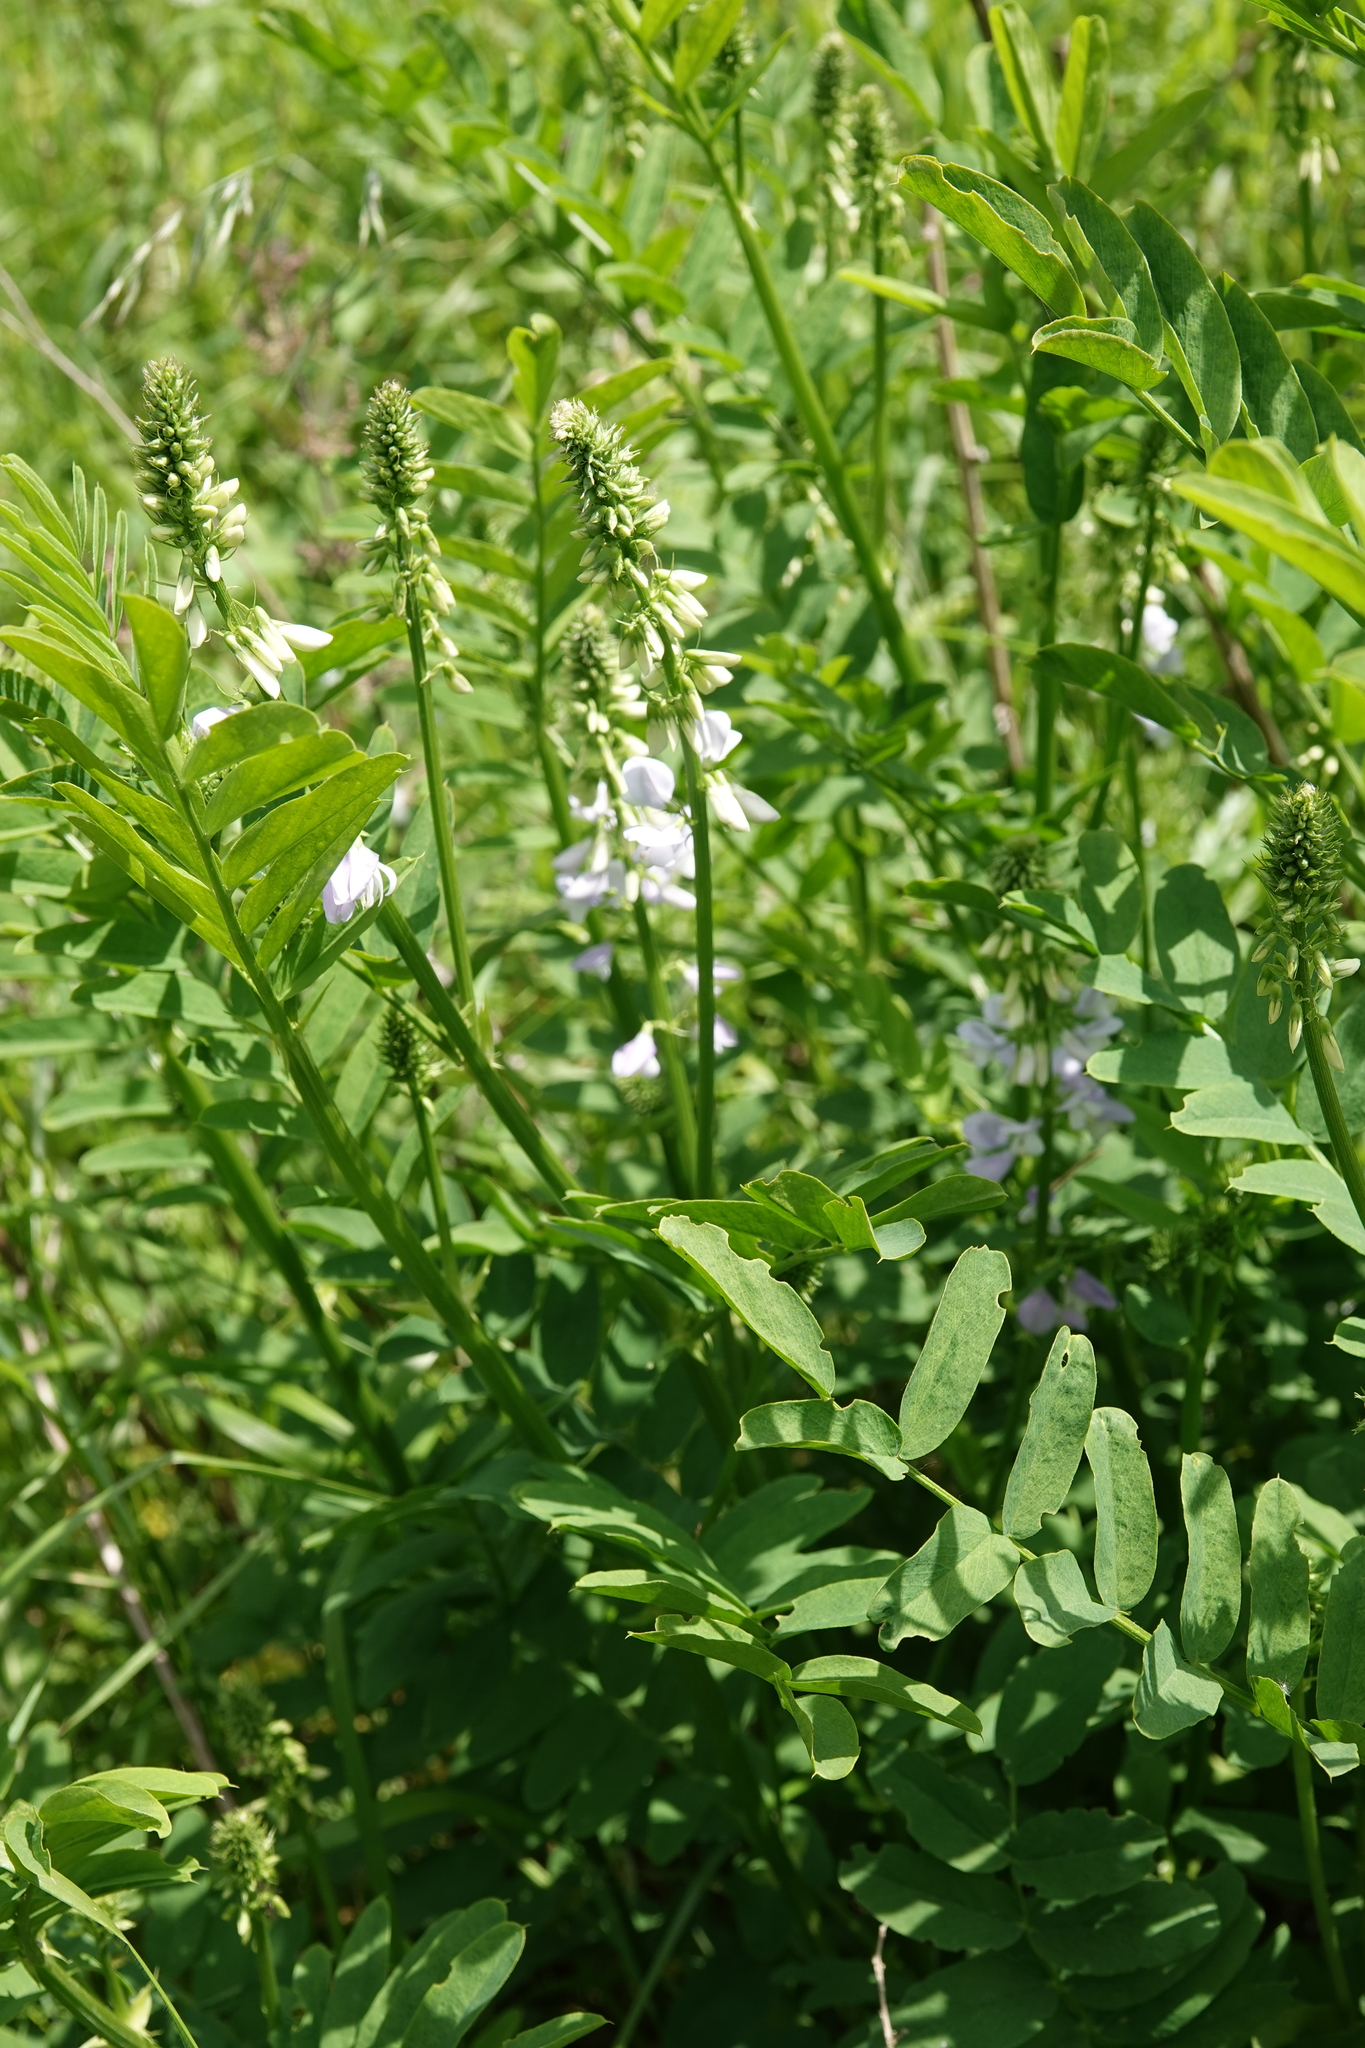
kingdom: Plantae
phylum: Tracheophyta
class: Magnoliopsida
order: Fabales
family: Fabaceae
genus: Galega
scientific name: Galega officinalis
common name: Goat's-rue
